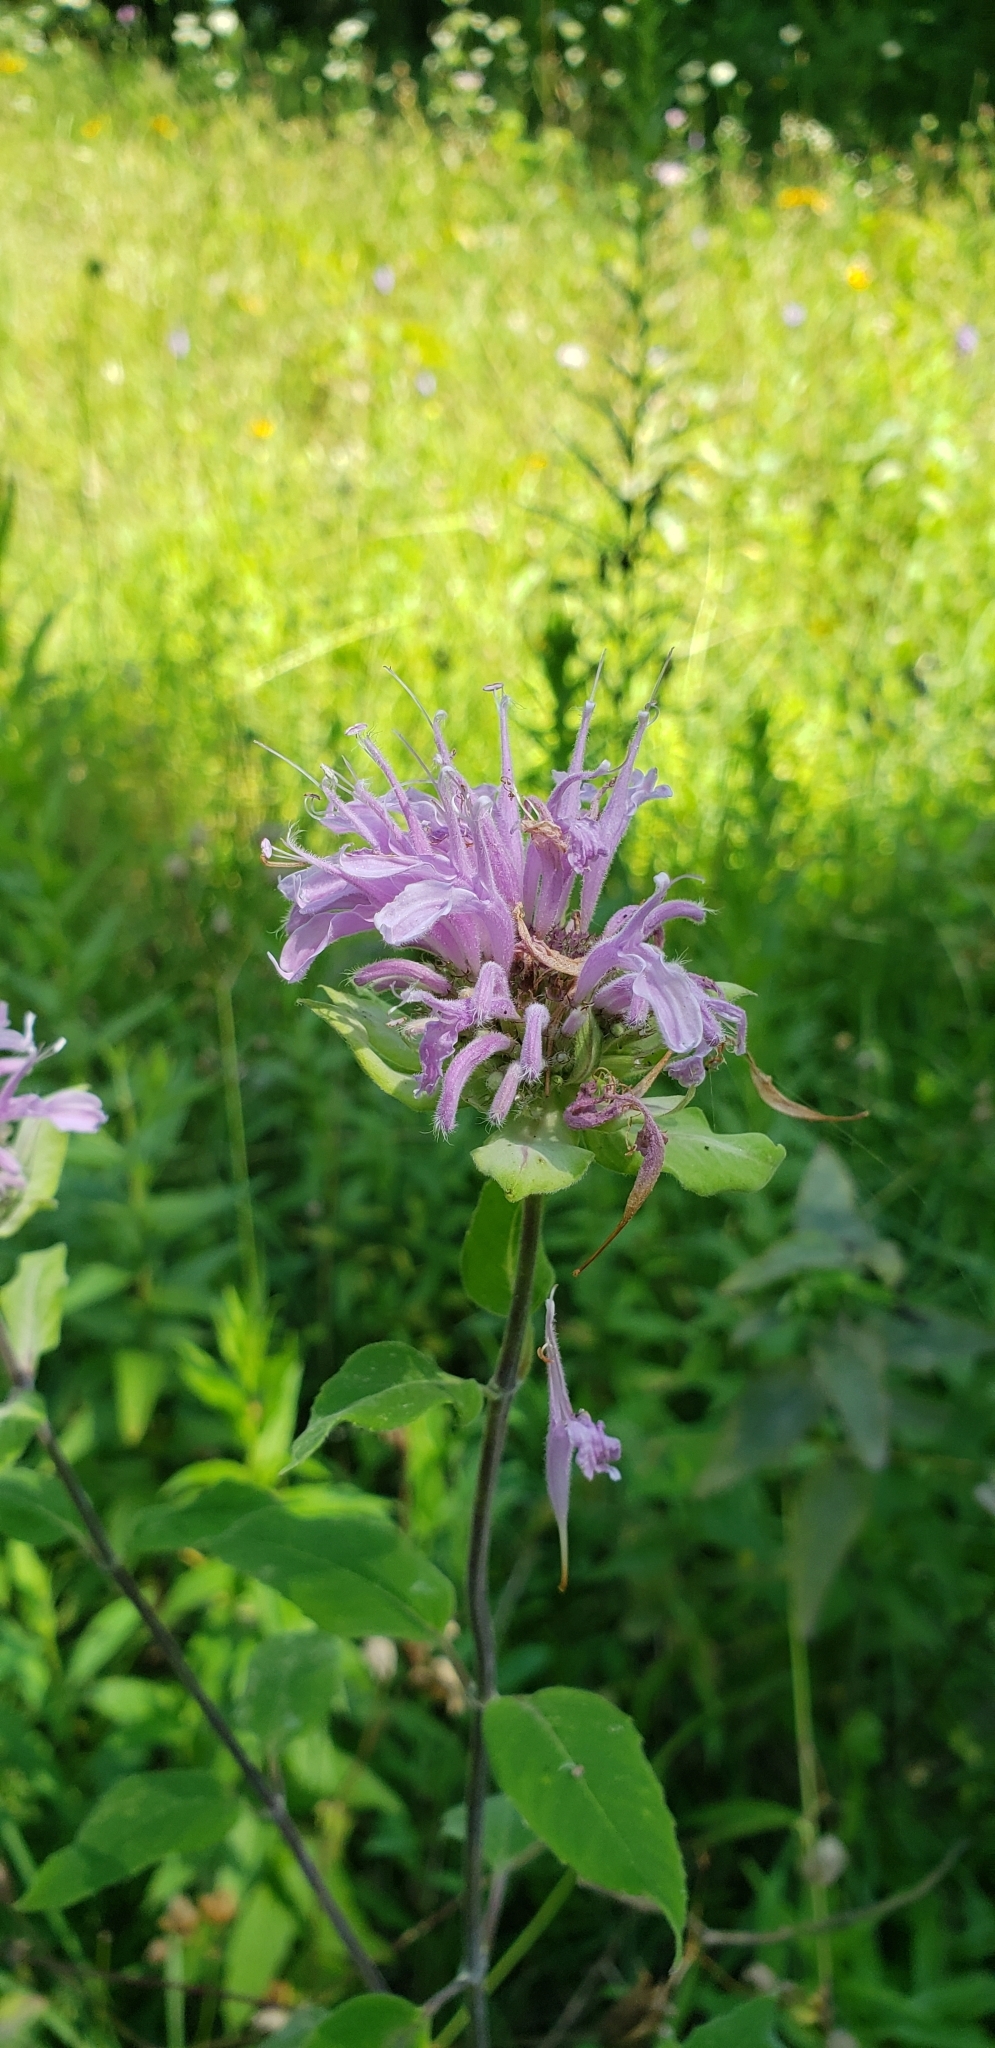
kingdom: Plantae
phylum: Tracheophyta
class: Magnoliopsida
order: Lamiales
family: Lamiaceae
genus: Monarda
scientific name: Monarda fistulosa
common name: Purple beebalm
